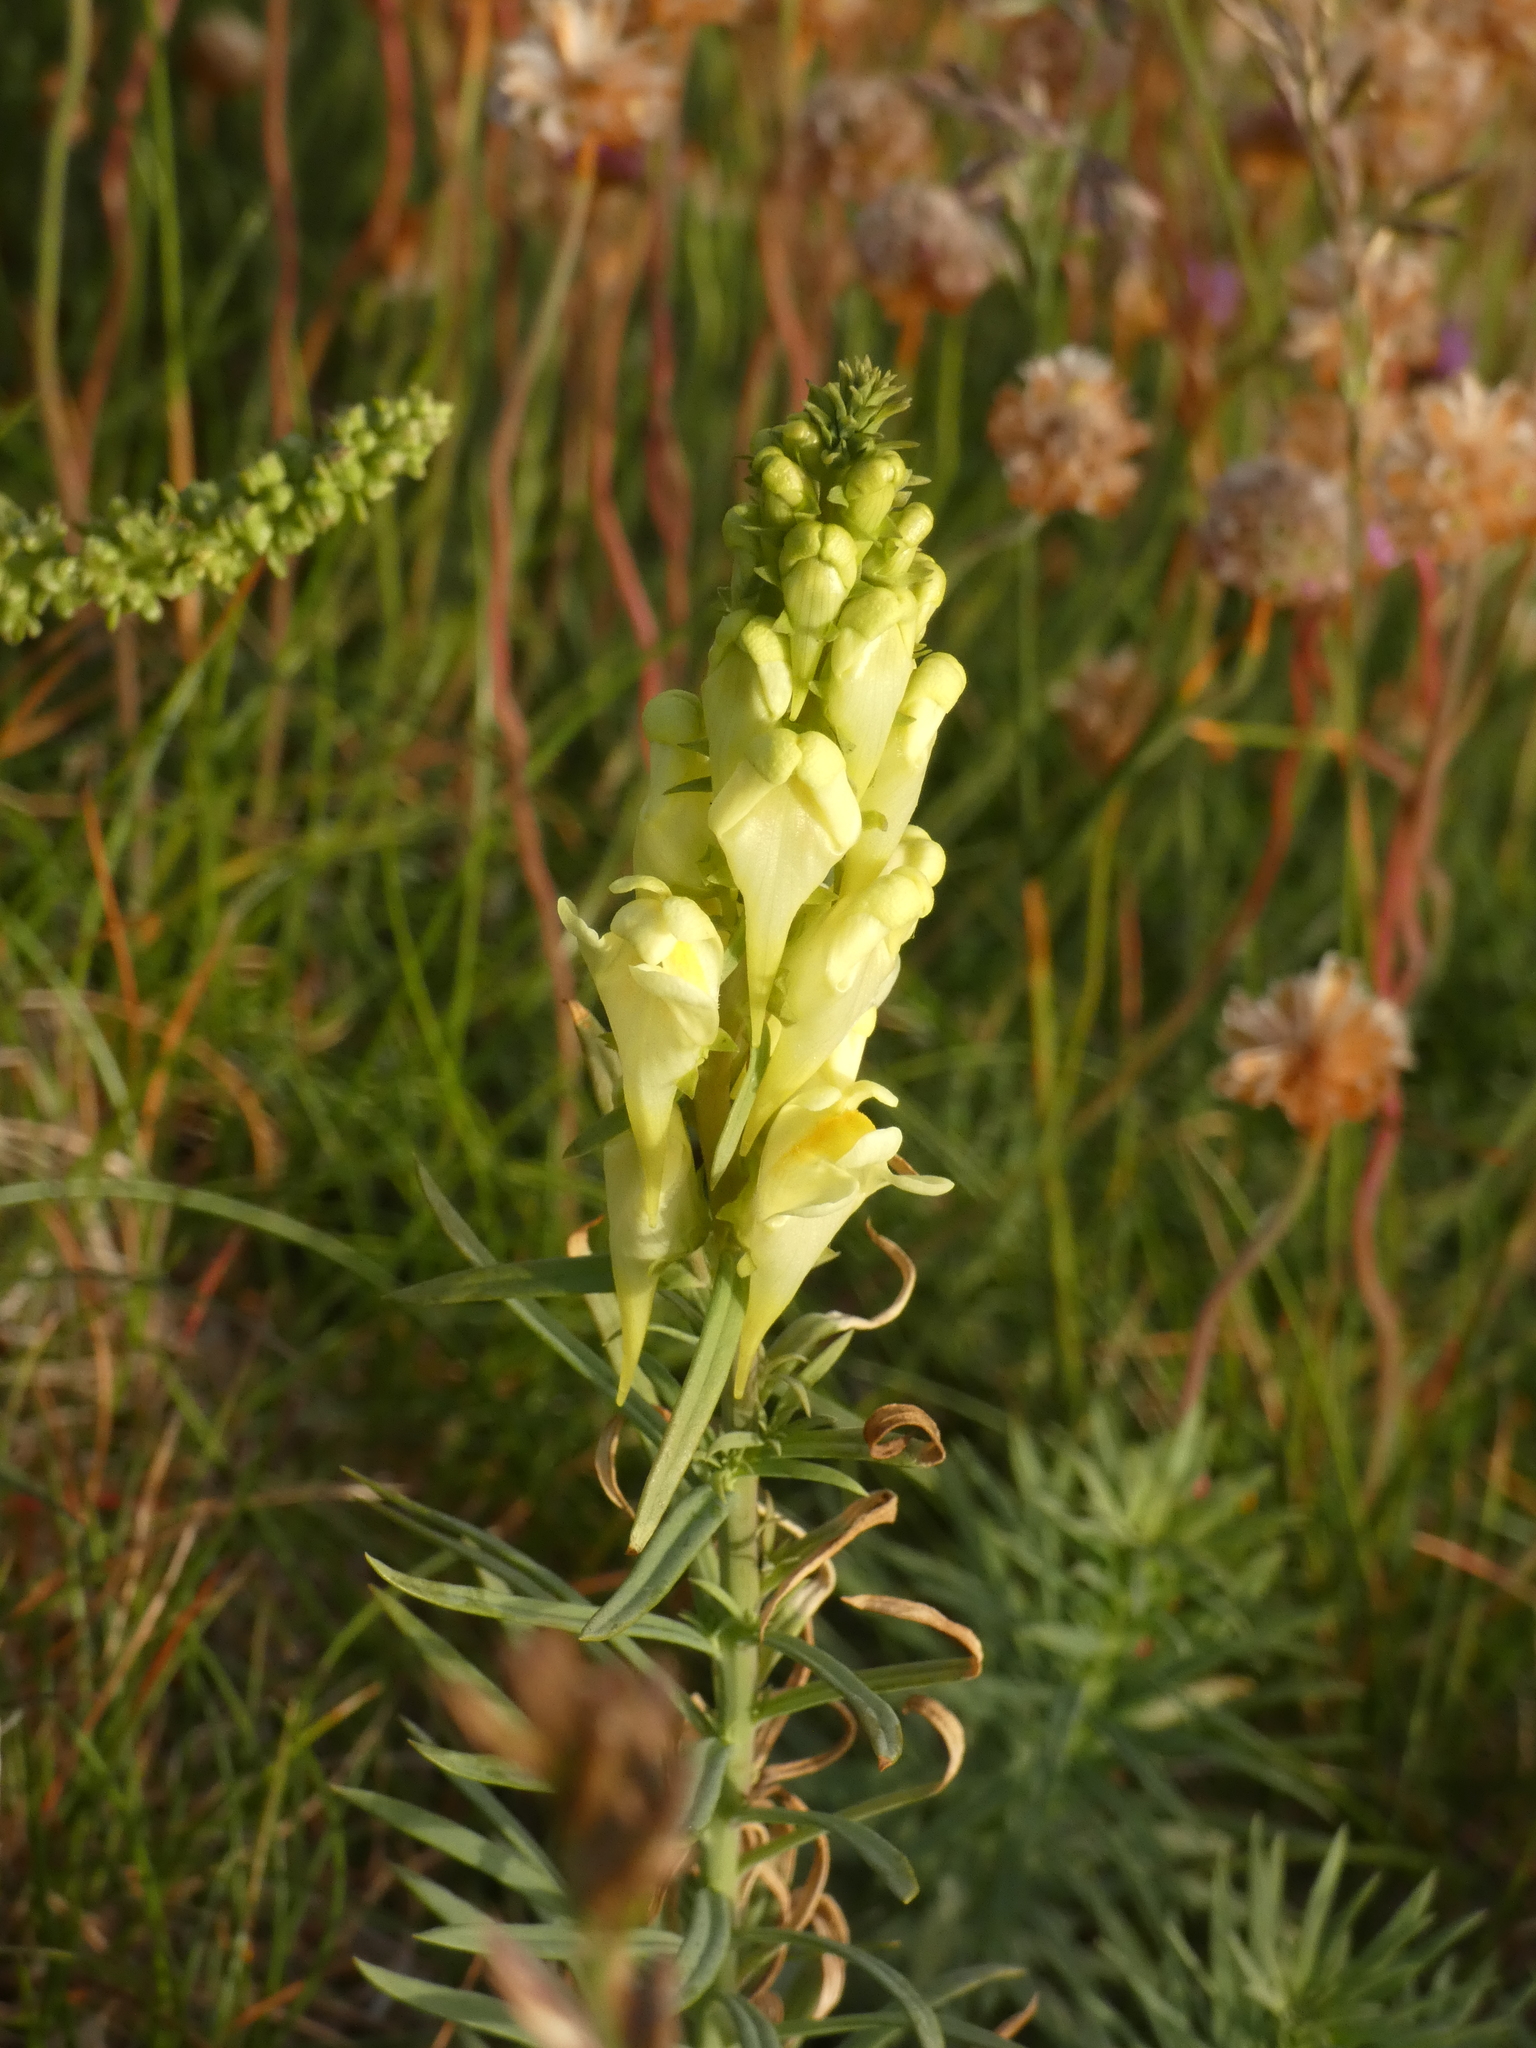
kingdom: Plantae
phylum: Tracheophyta
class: Magnoliopsida
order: Lamiales
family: Plantaginaceae
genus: Linaria
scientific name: Linaria vulgaris
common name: Butter and eggs
